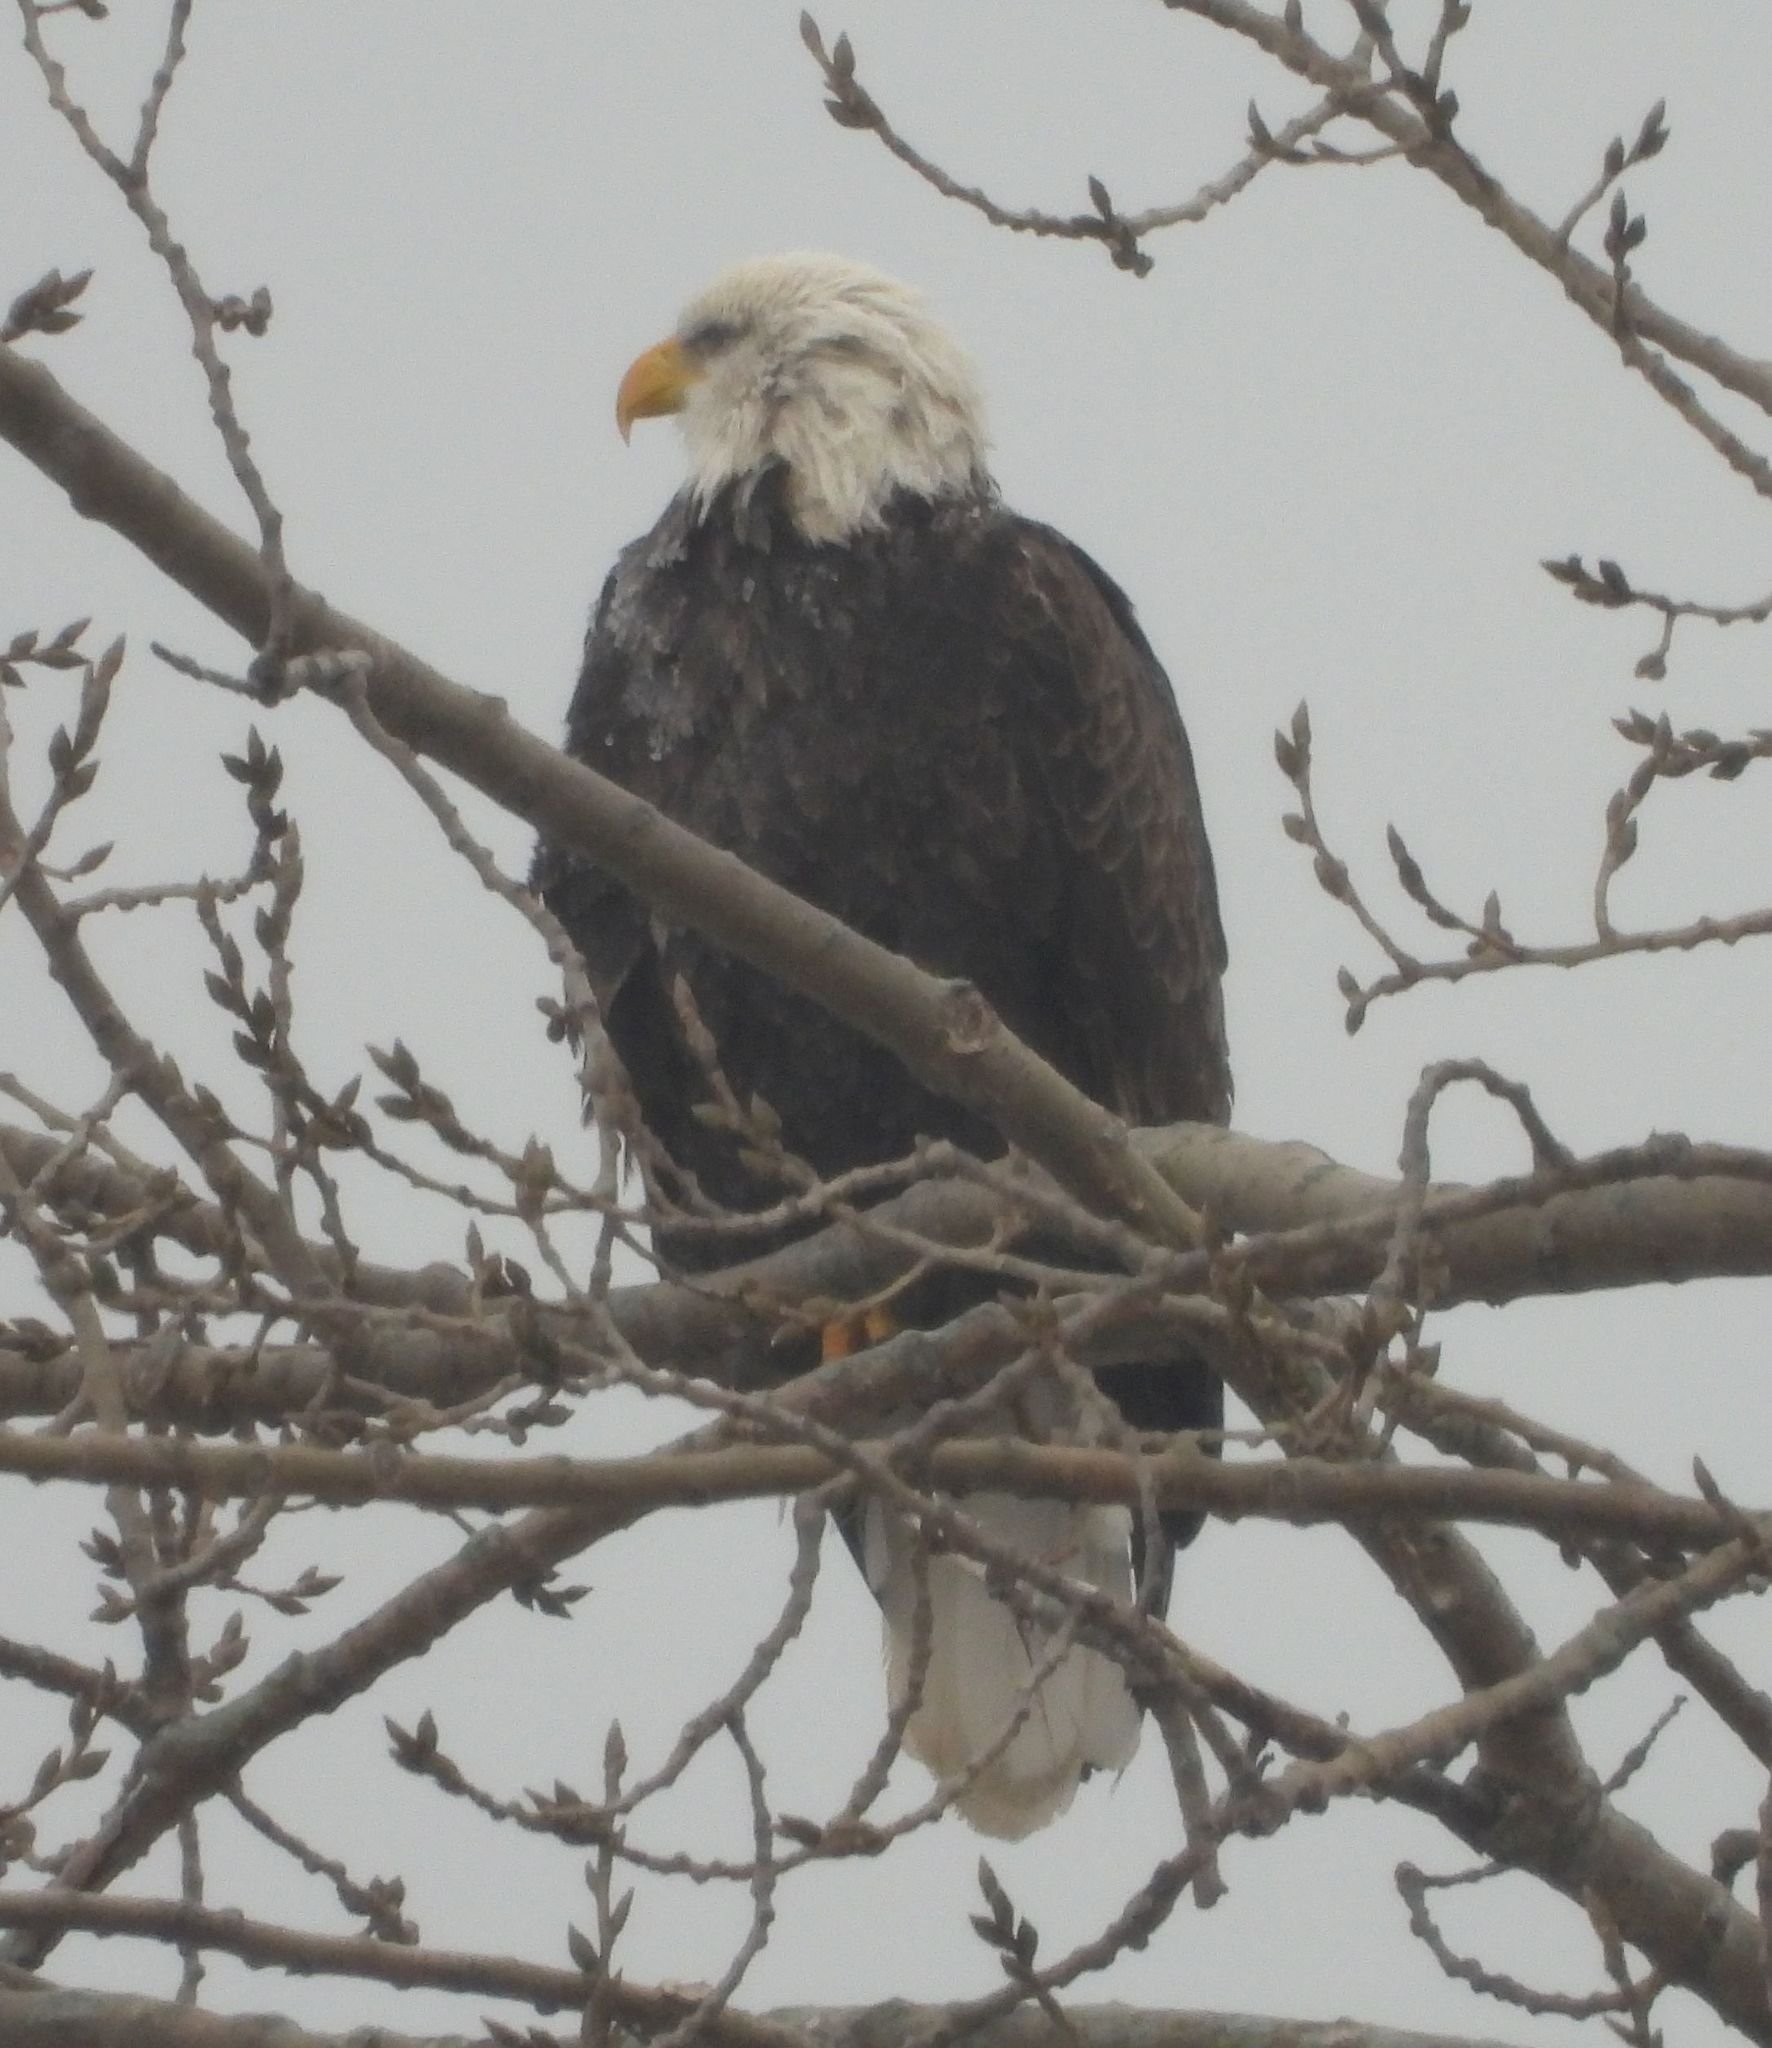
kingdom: Animalia
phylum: Chordata
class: Aves
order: Accipitriformes
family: Accipitridae
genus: Haliaeetus
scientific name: Haliaeetus leucocephalus
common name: Bald eagle
